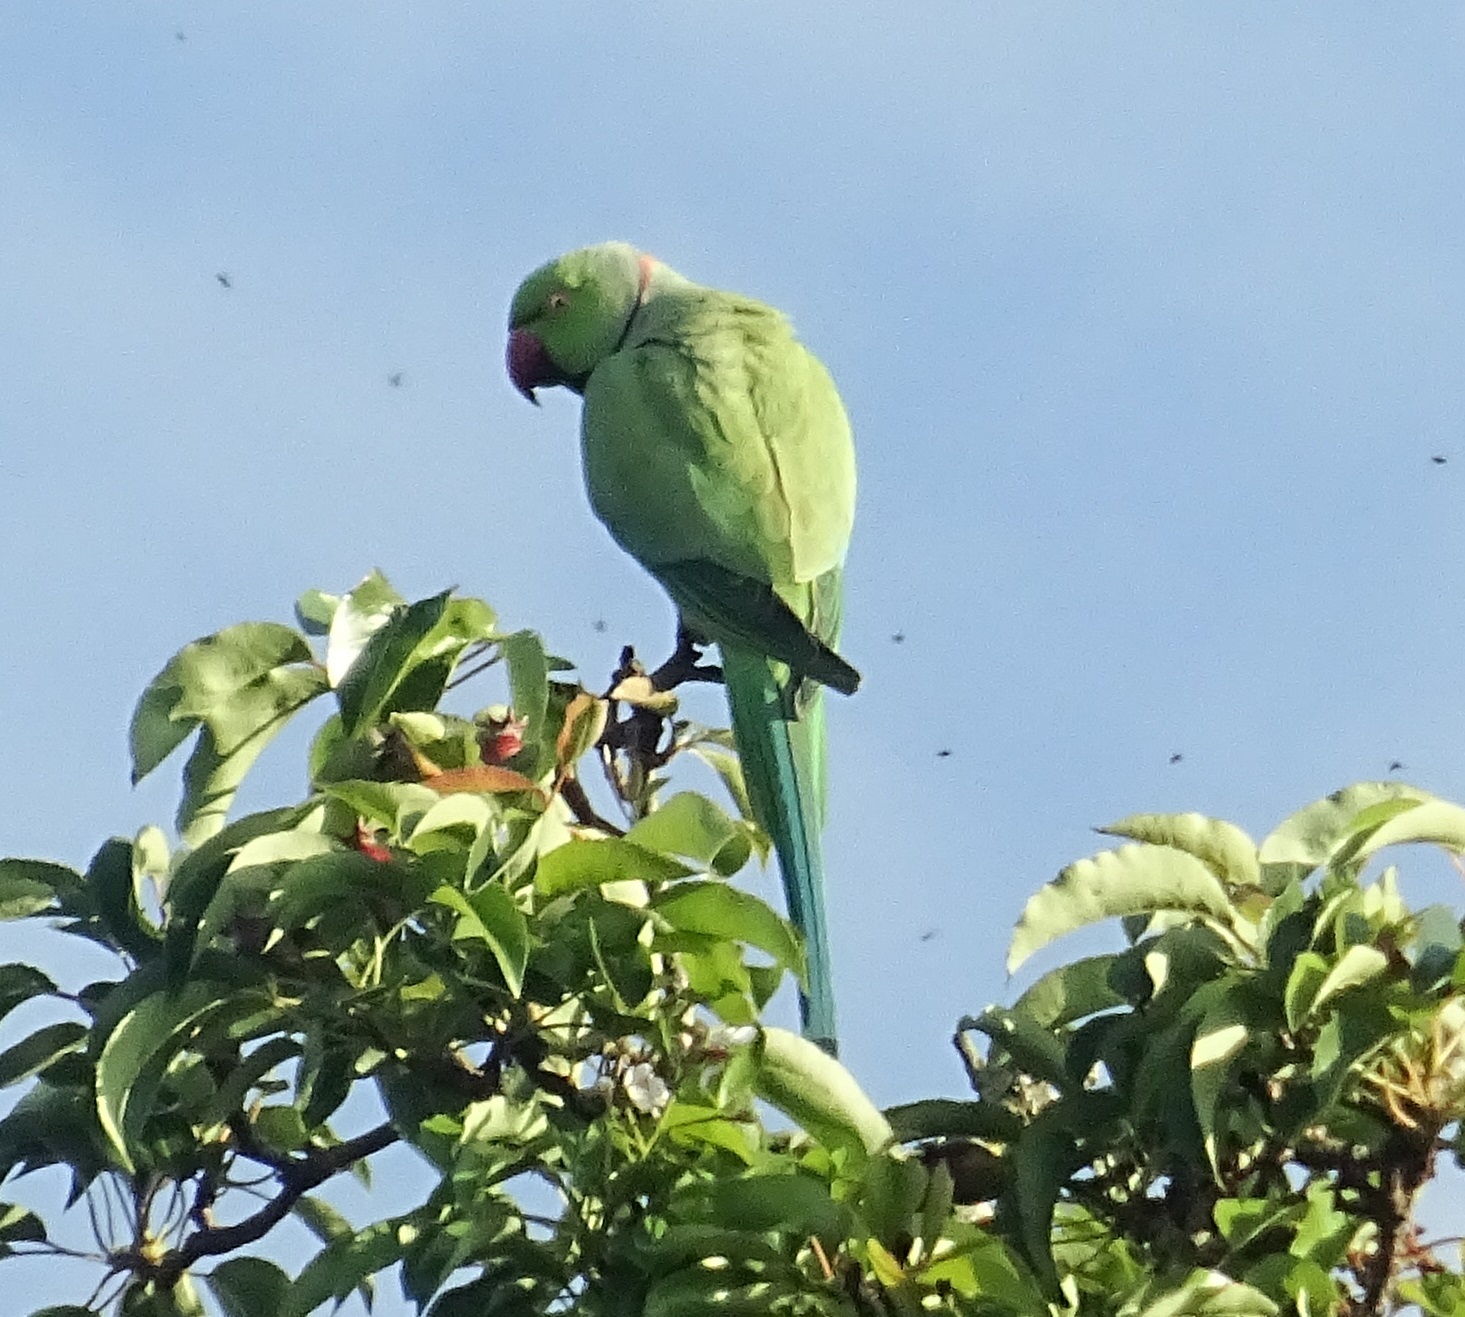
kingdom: Animalia
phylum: Chordata
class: Aves
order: Psittaciformes
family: Psittacidae
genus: Psittacula
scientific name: Psittacula krameri
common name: Rose-ringed parakeet
